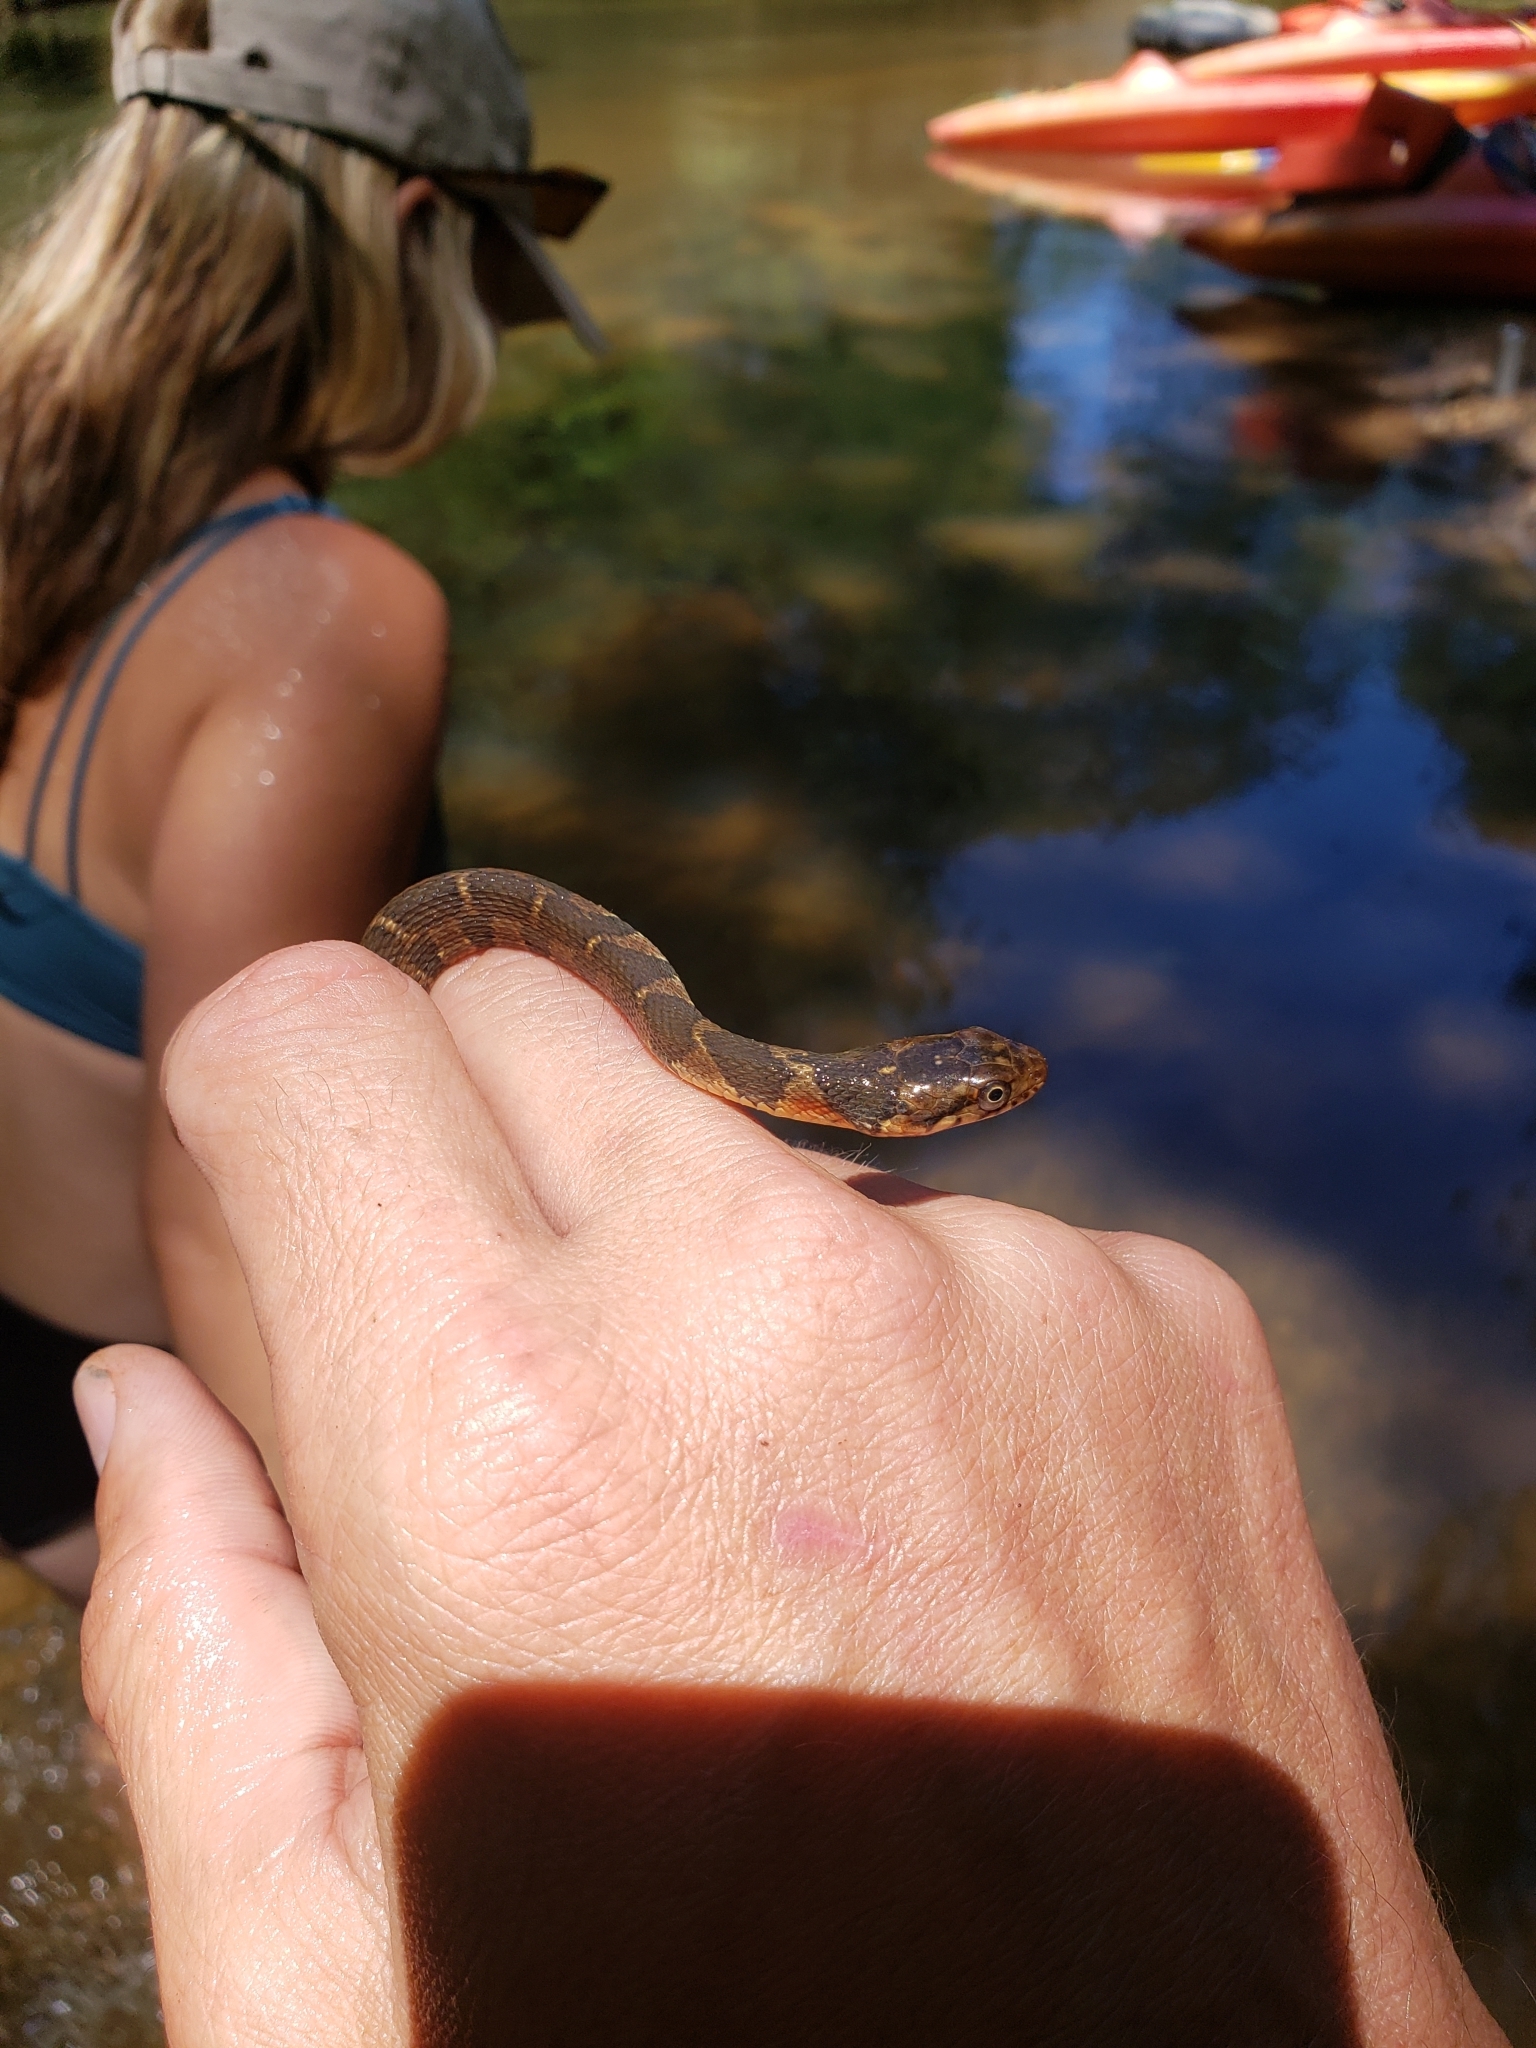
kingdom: Animalia
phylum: Chordata
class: Squamata
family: Colubridae
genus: Nerodia
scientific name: Nerodia erythrogaster
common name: Plainbelly water snake
